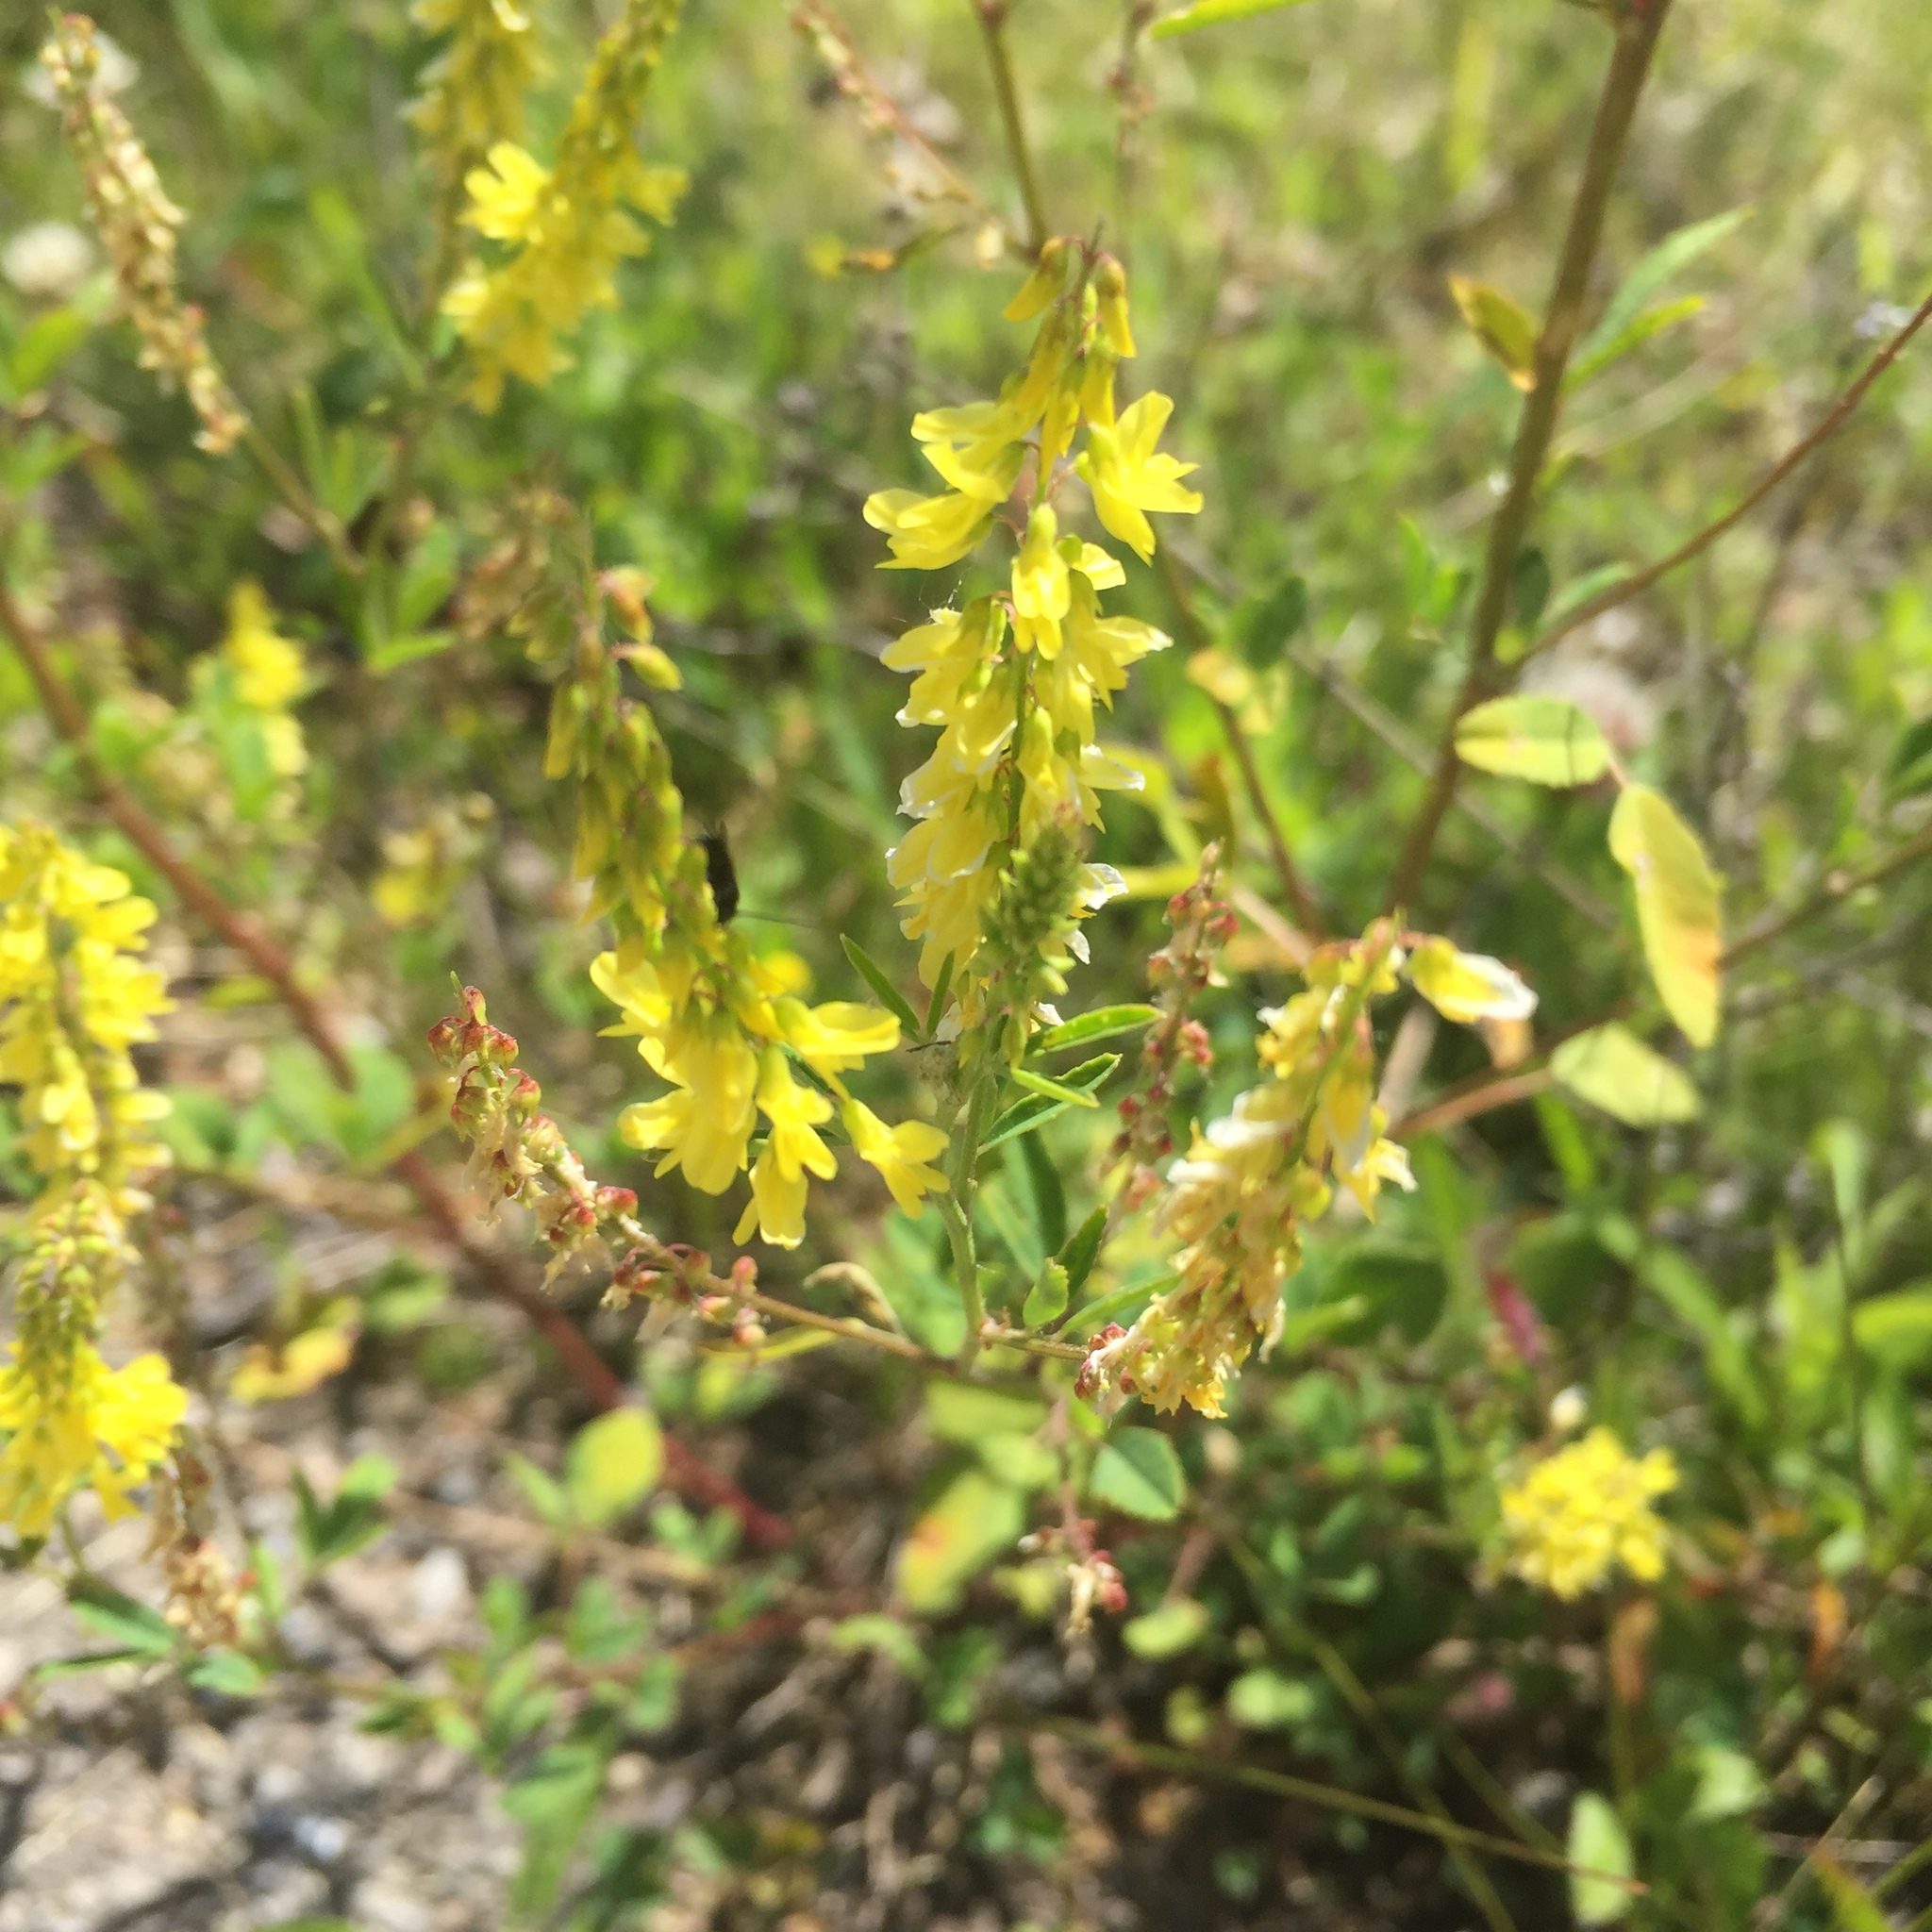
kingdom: Plantae
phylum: Tracheophyta
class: Magnoliopsida
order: Fabales
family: Fabaceae
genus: Melilotus
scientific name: Melilotus officinalis
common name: Sweetclover
